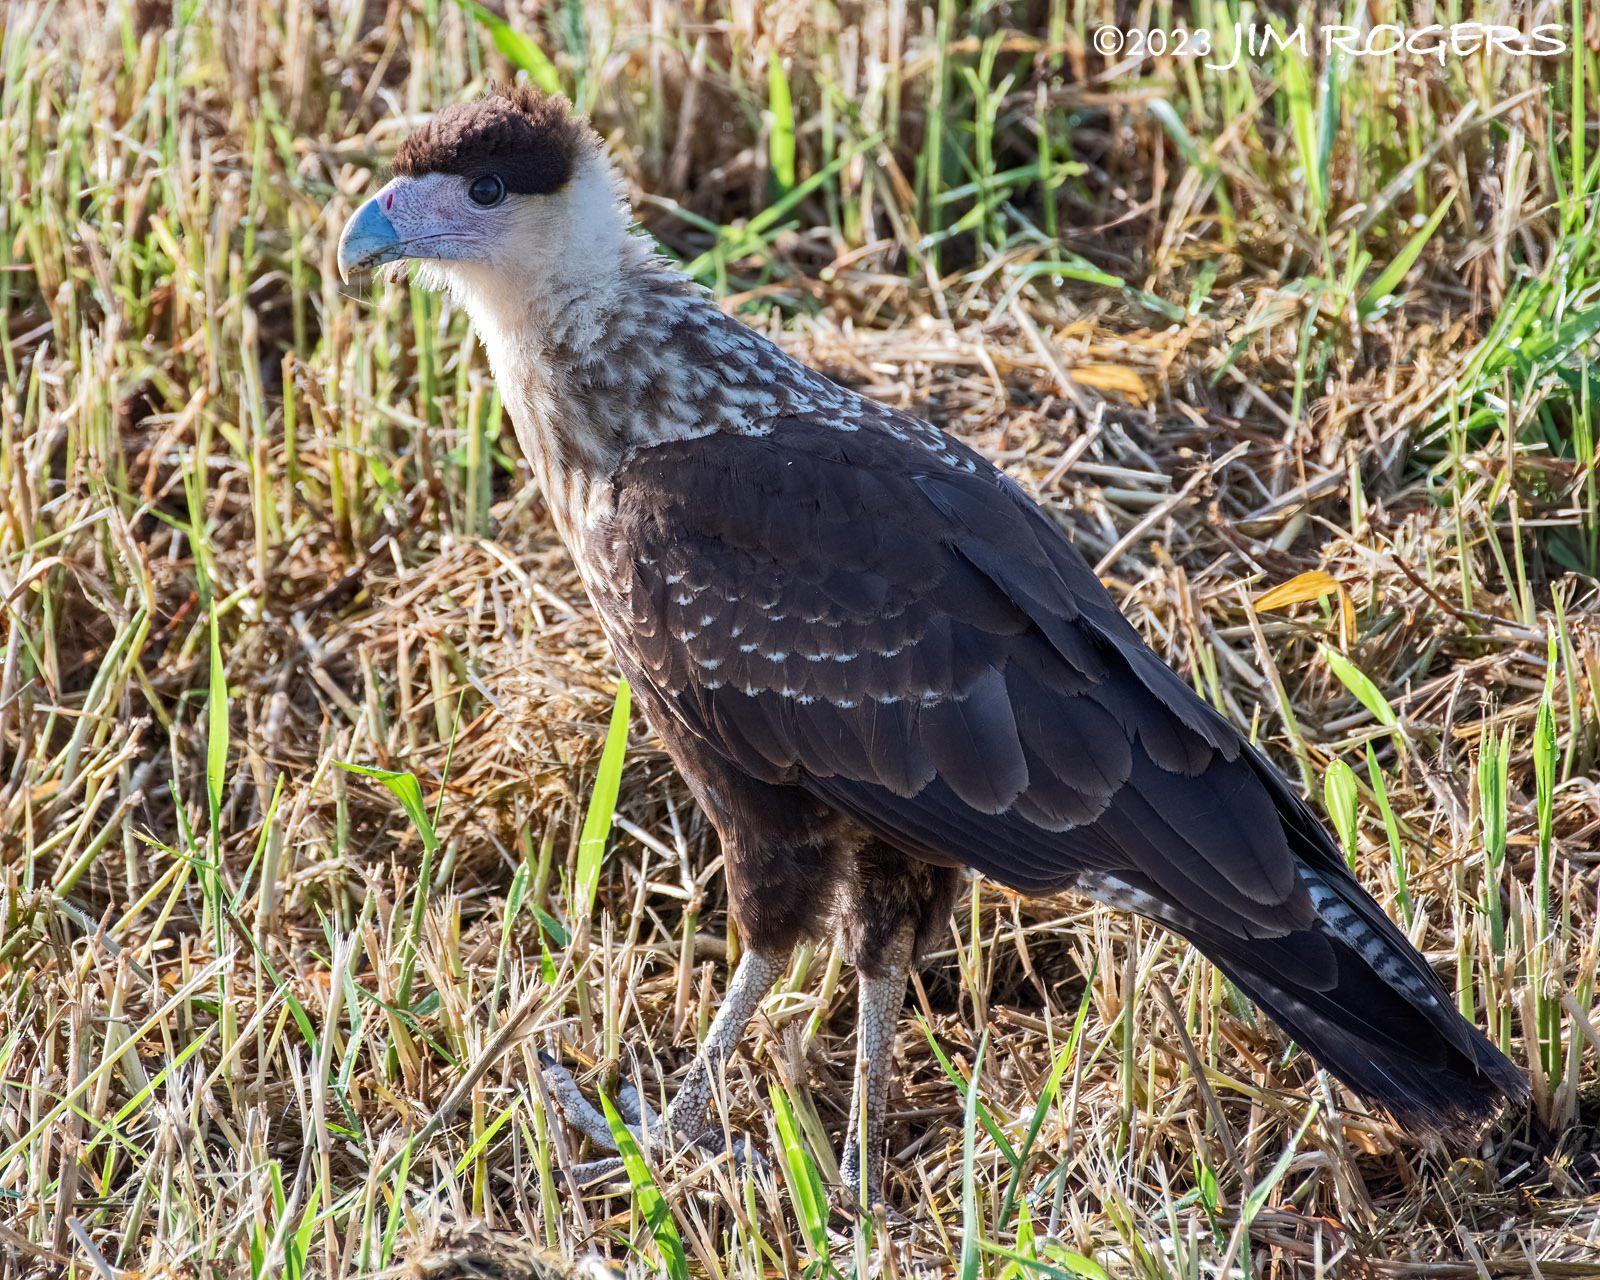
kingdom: Animalia
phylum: Chordata
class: Aves
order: Falconiformes
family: Falconidae
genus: Caracara
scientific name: Caracara plancus
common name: Southern caracara
